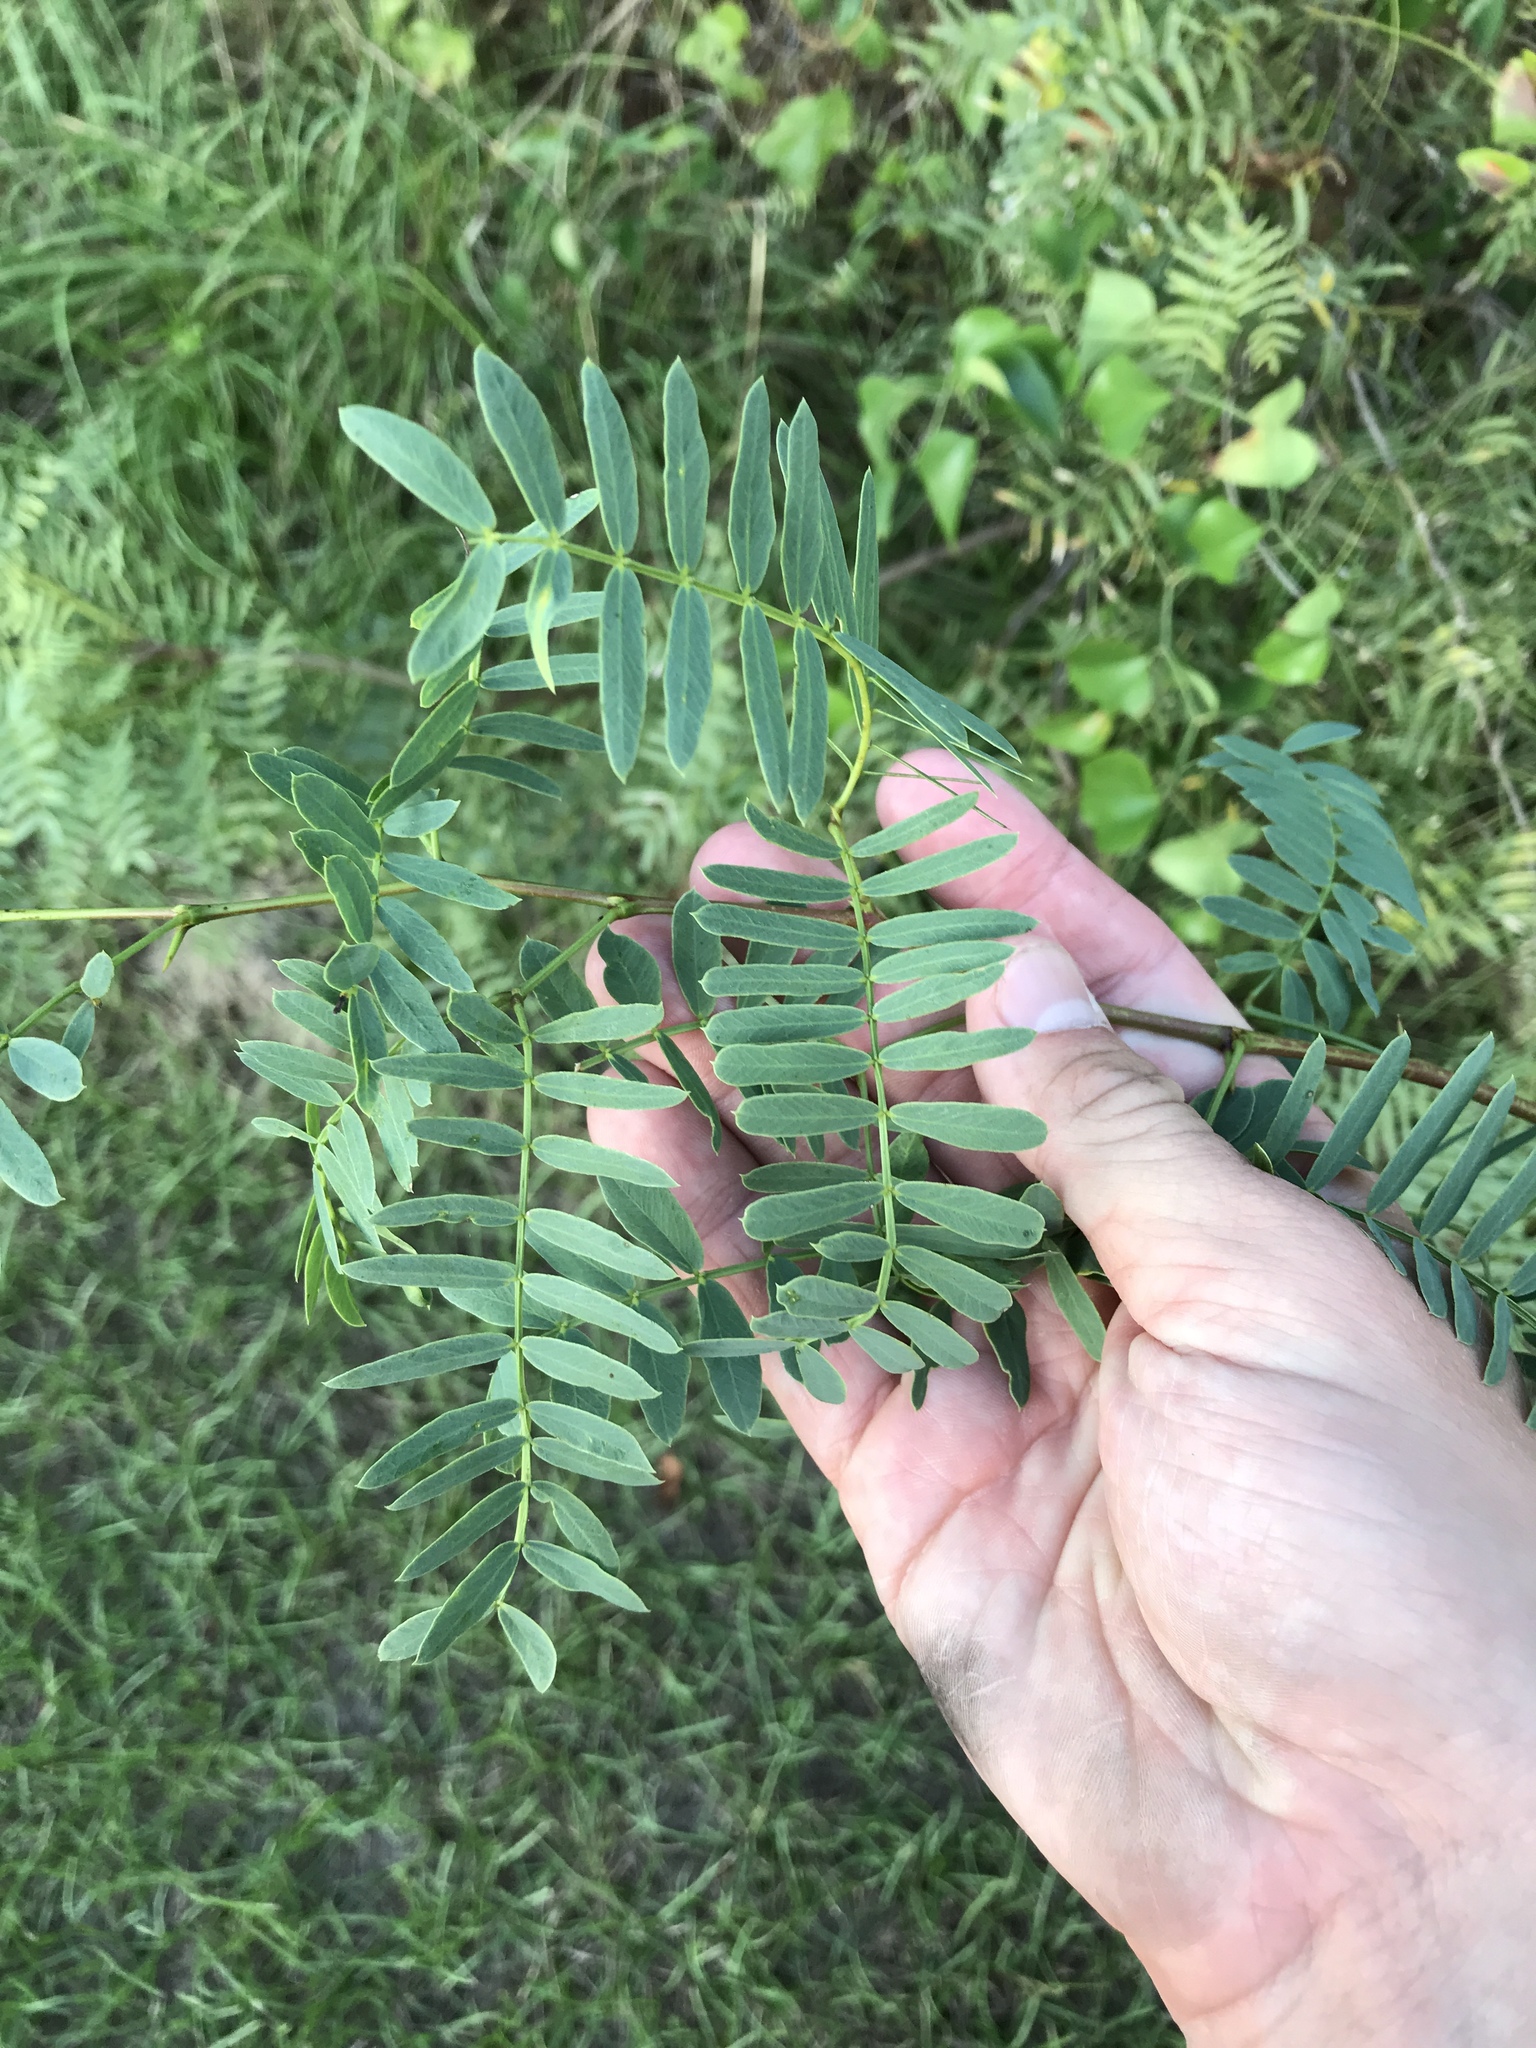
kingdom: Plantae
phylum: Tracheophyta
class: Magnoliopsida
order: Fabales
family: Fabaceae
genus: Prosopis
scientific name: Prosopis glandulosa
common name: Honey mesquite
